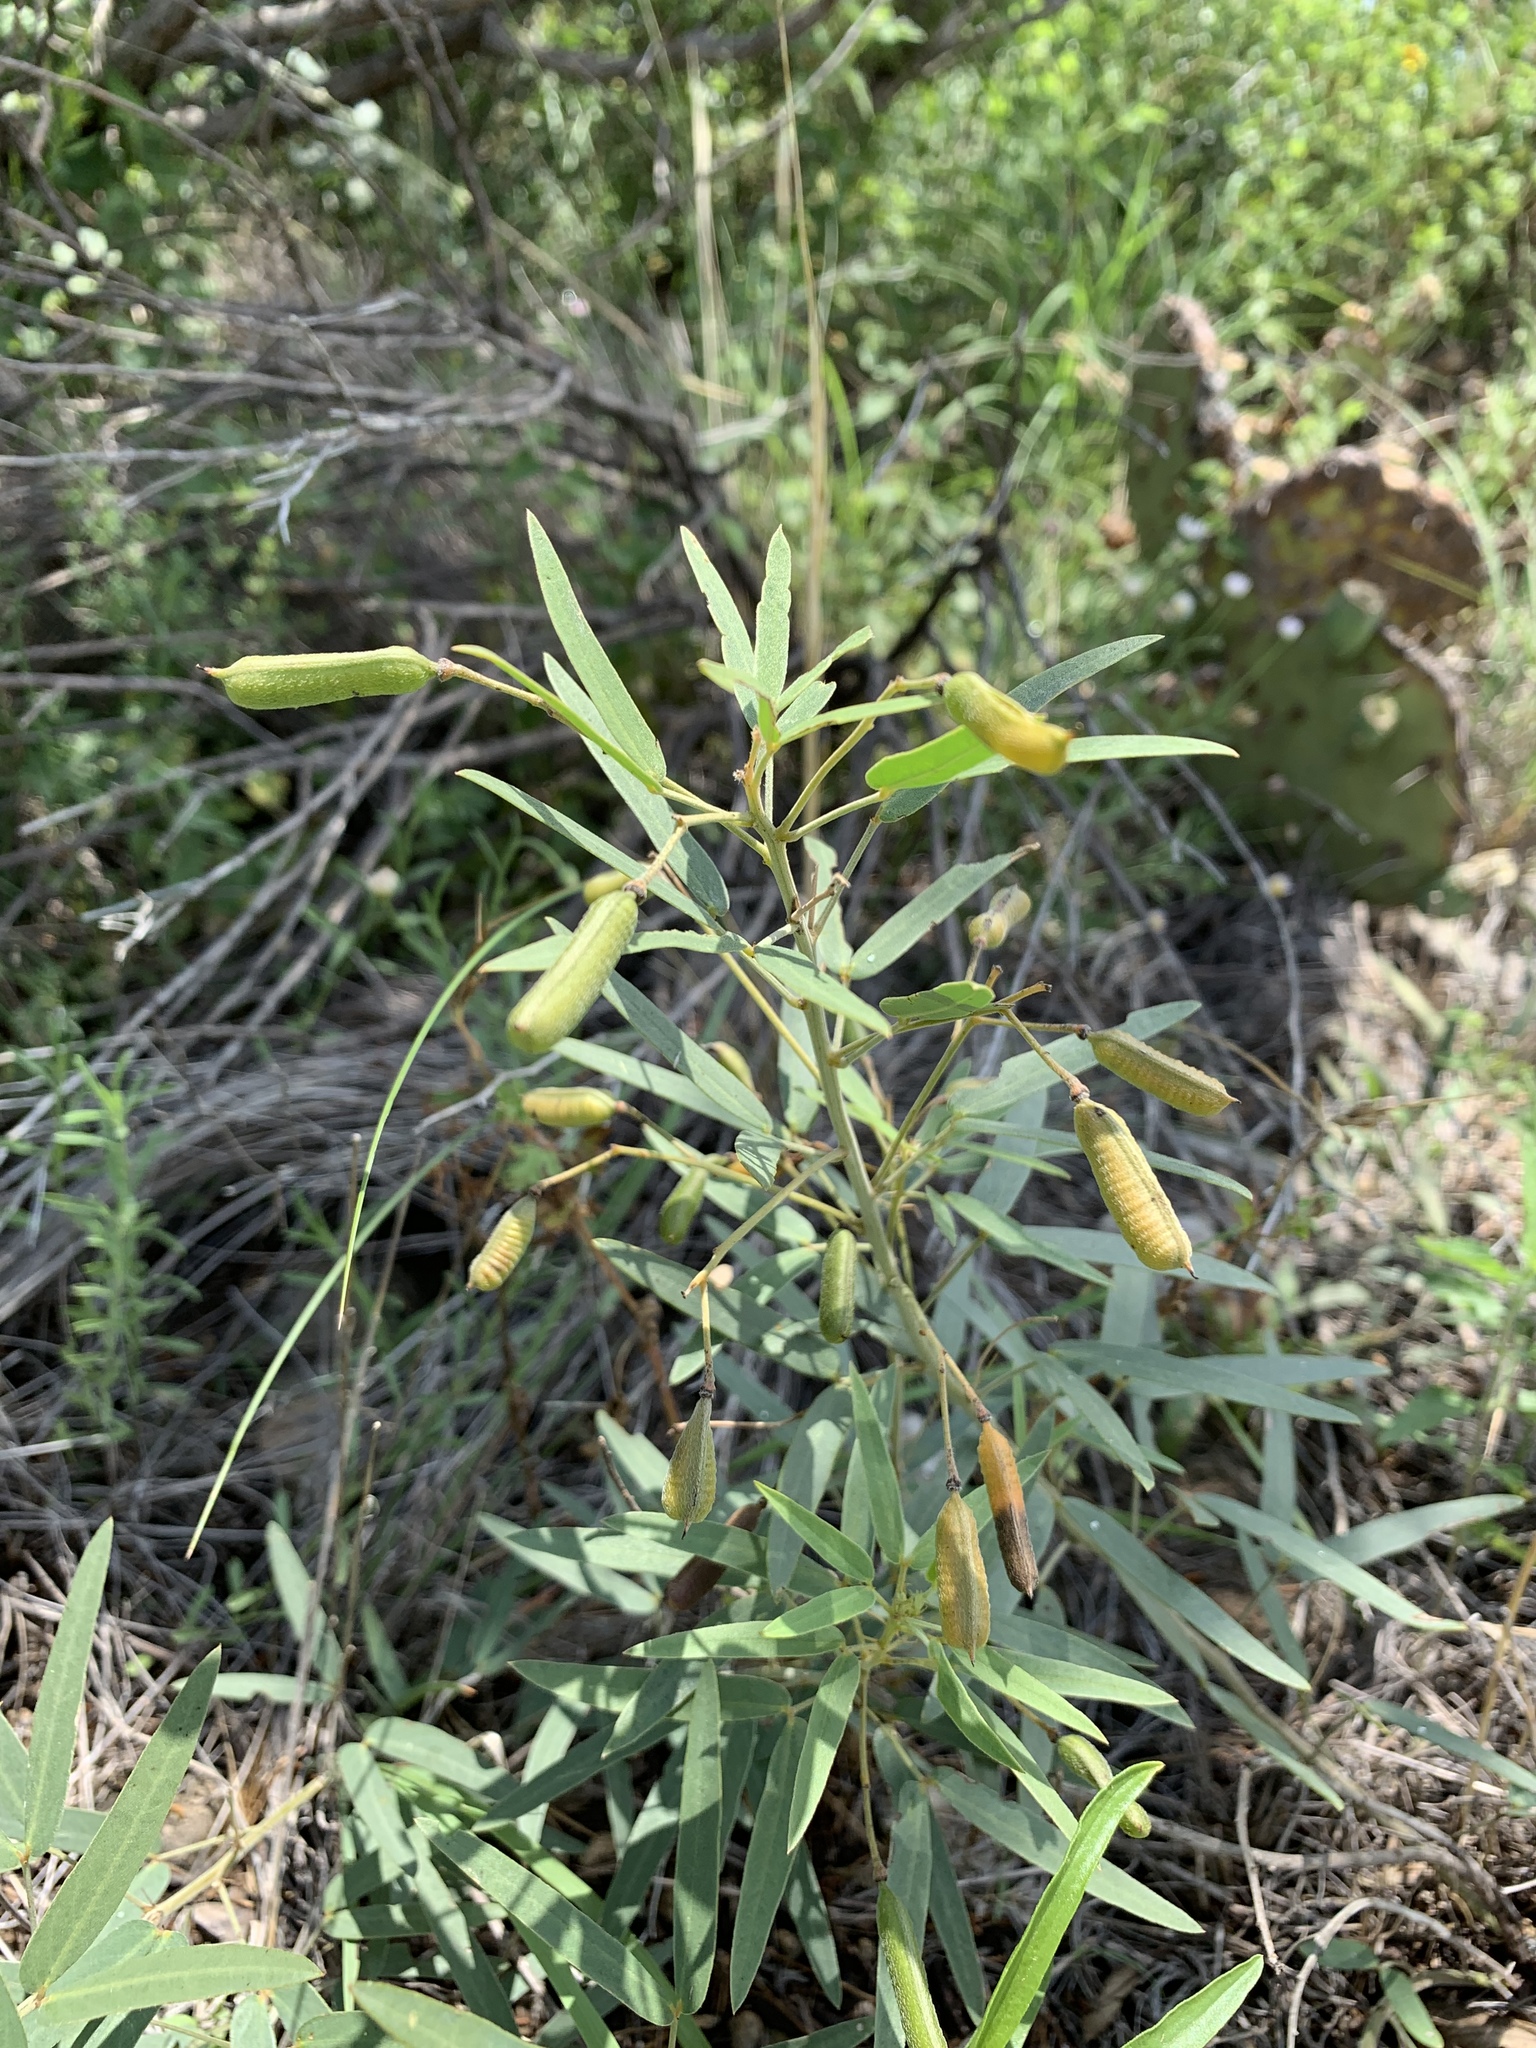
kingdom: Plantae
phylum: Tracheophyta
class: Magnoliopsida
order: Fabales
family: Fabaceae
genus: Senna
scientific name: Senna roemeriana
